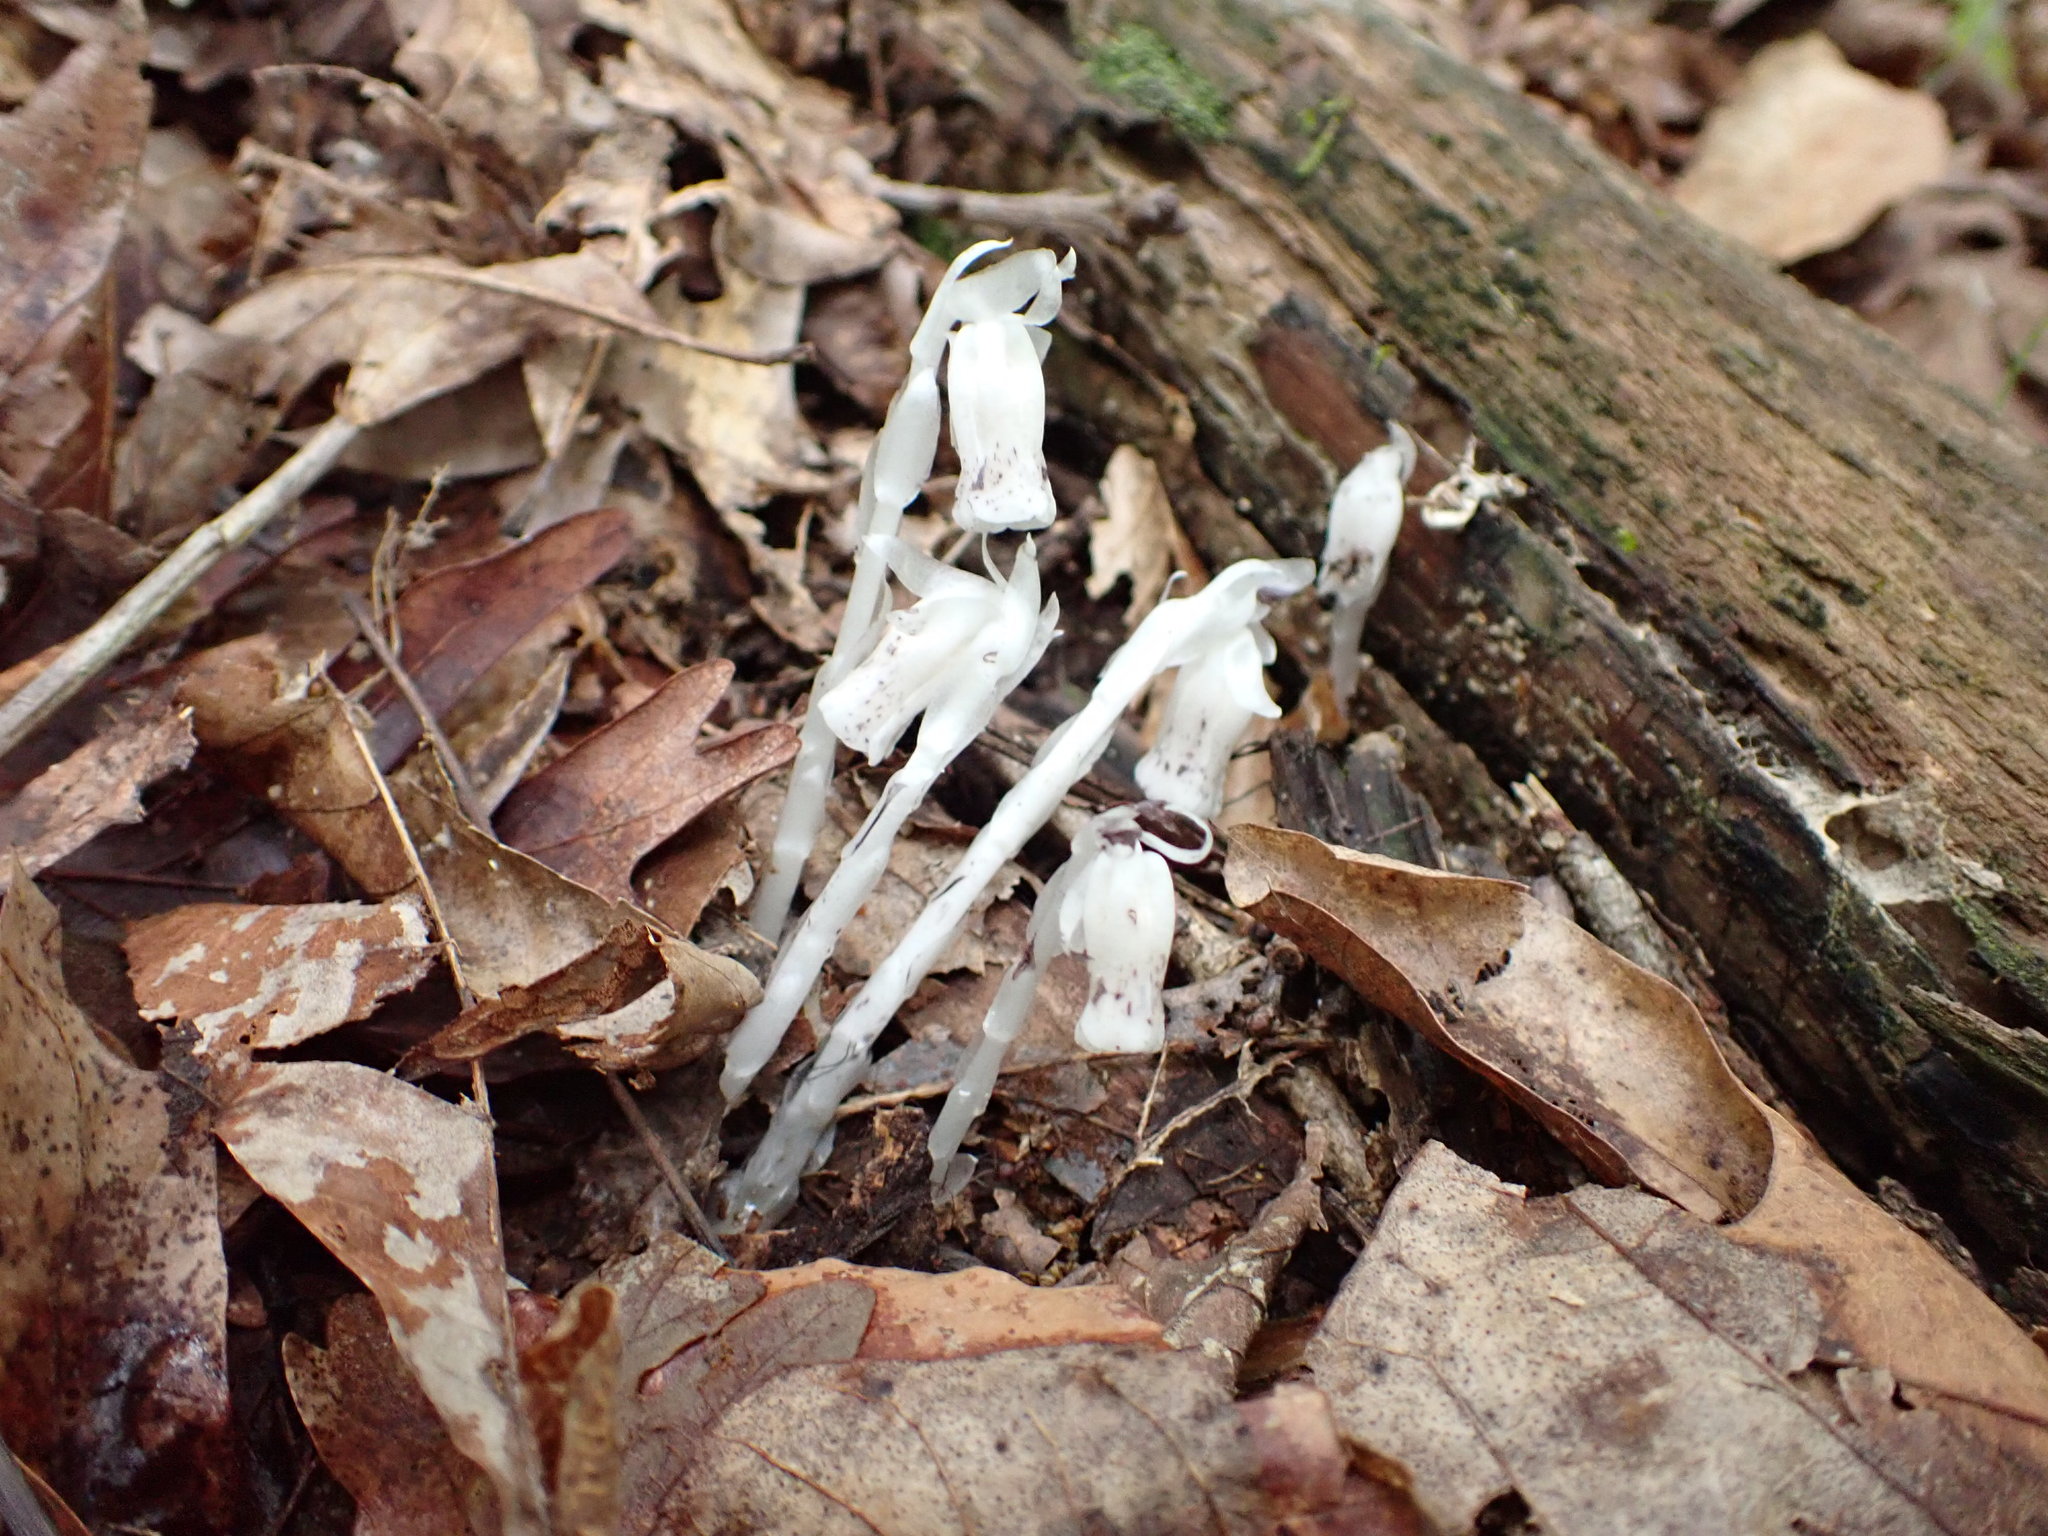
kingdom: Plantae
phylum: Tracheophyta
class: Magnoliopsida
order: Ericales
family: Ericaceae
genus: Monotropa
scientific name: Monotropa uniflora
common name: Convulsion root
